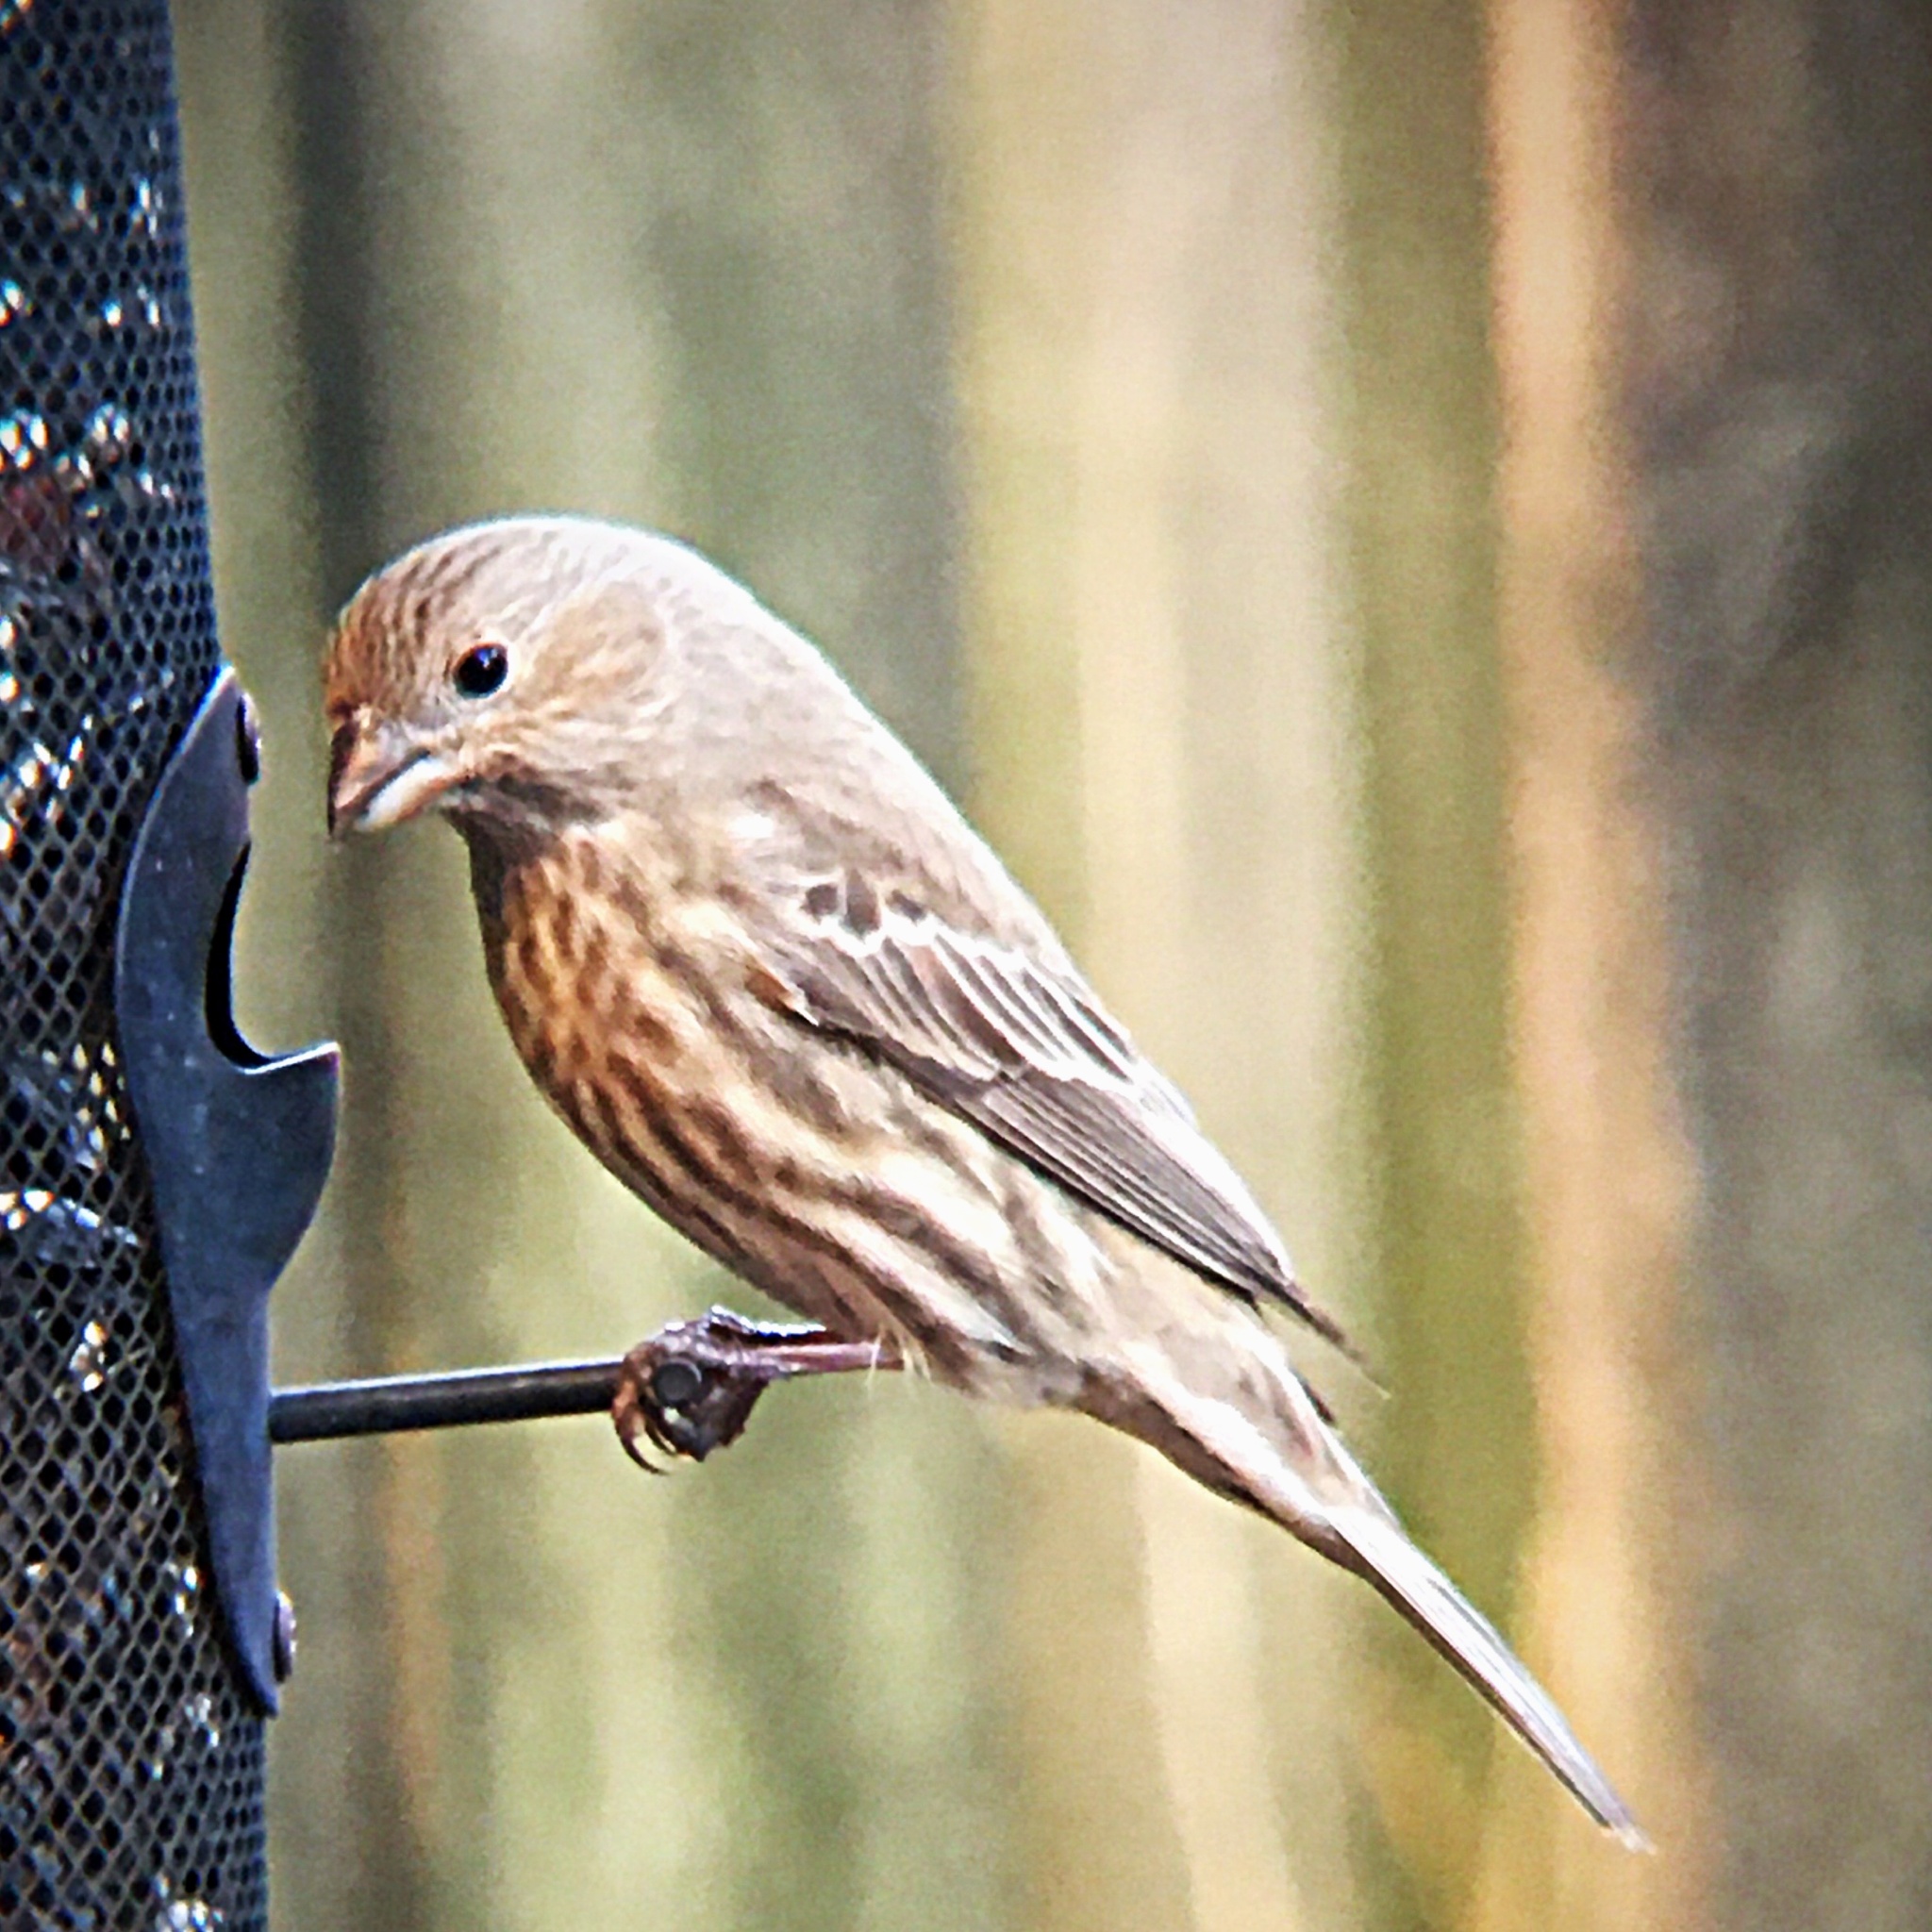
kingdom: Animalia
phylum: Chordata
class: Aves
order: Passeriformes
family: Fringillidae
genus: Haemorhous
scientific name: Haemorhous mexicanus
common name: House finch
